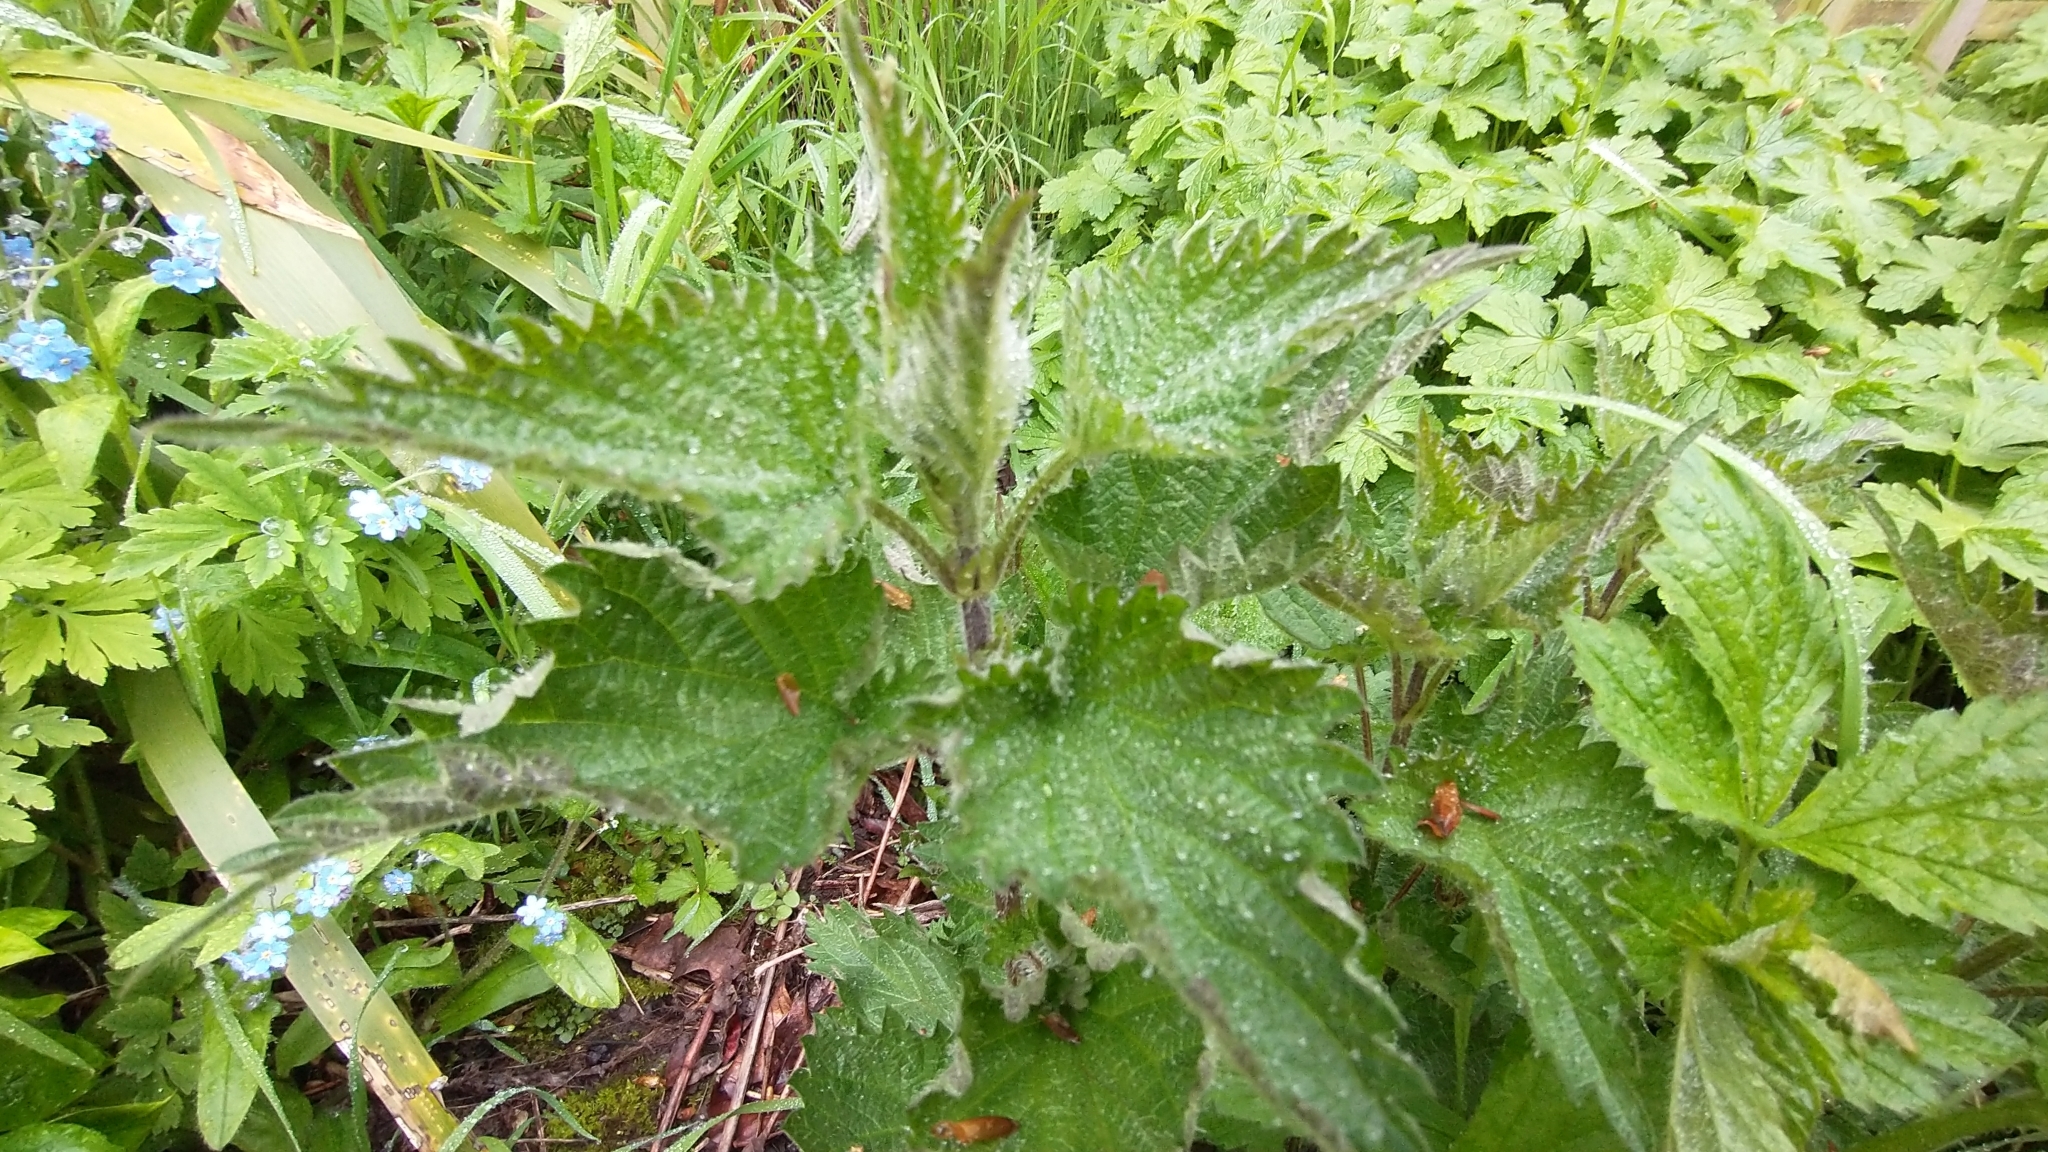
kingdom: Plantae
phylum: Tracheophyta
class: Magnoliopsida
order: Rosales
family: Urticaceae
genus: Urtica
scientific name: Urtica dioica
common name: Common nettle
